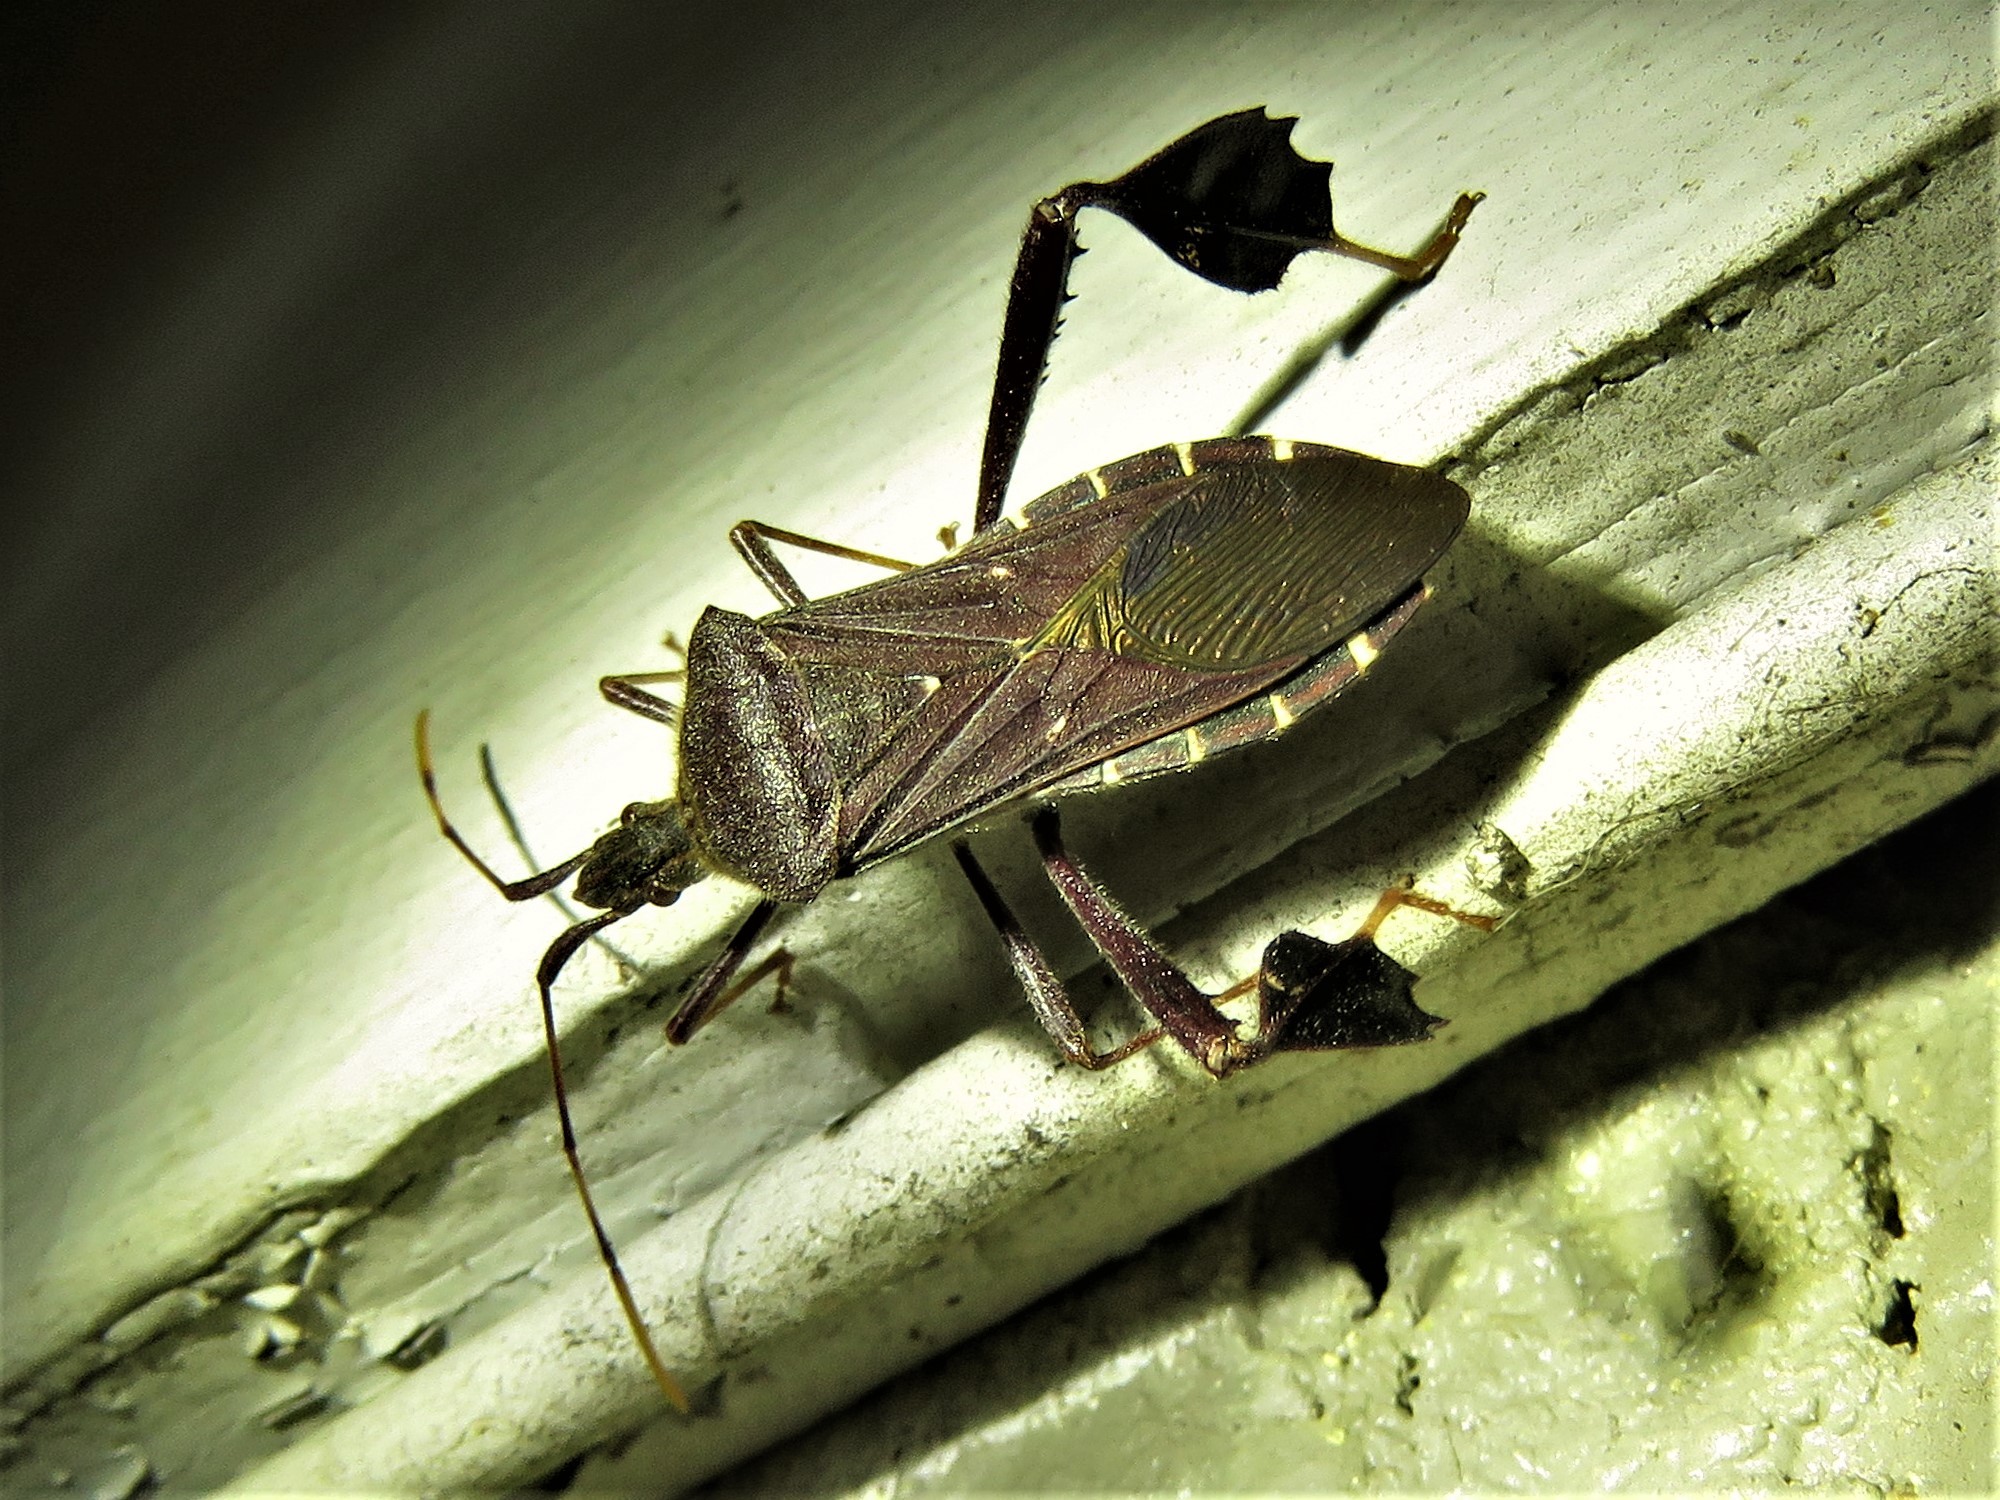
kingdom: Animalia
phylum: Arthropoda
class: Insecta
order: Hemiptera
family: Coreidae
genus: Leptoglossus
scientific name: Leptoglossus oppositus
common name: Northern leaf-footed bug
